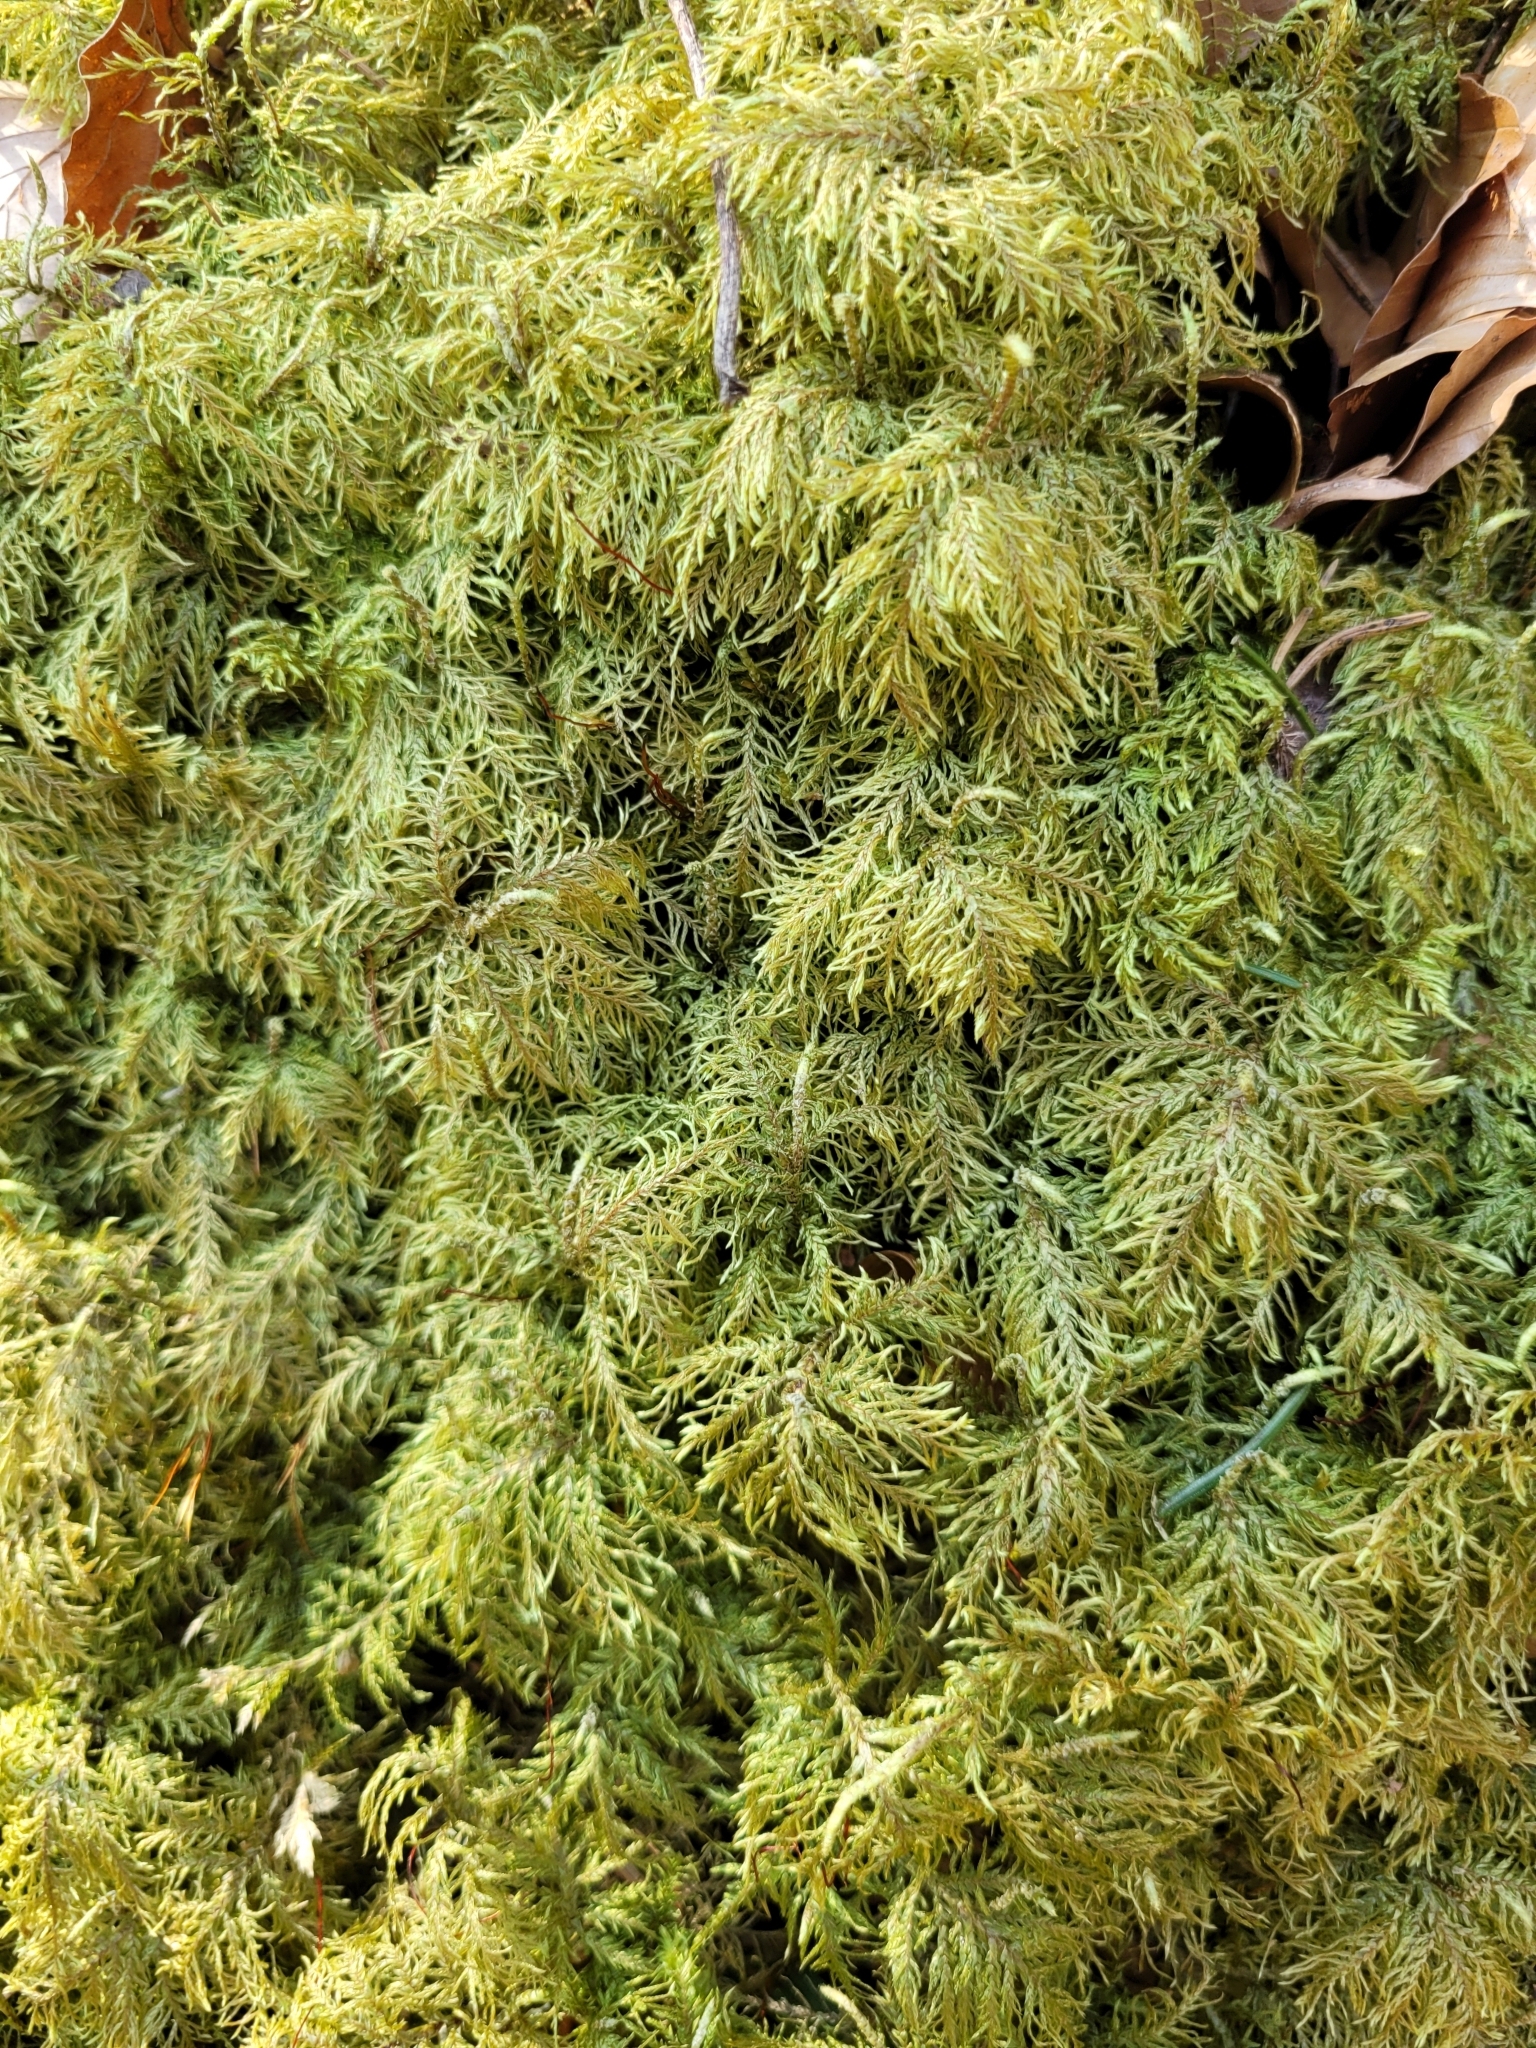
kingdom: Plantae
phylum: Bryophyta
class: Bryopsida
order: Hypnales
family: Hylocomiaceae
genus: Hylocomium
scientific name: Hylocomium splendens
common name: Stairstep moss
